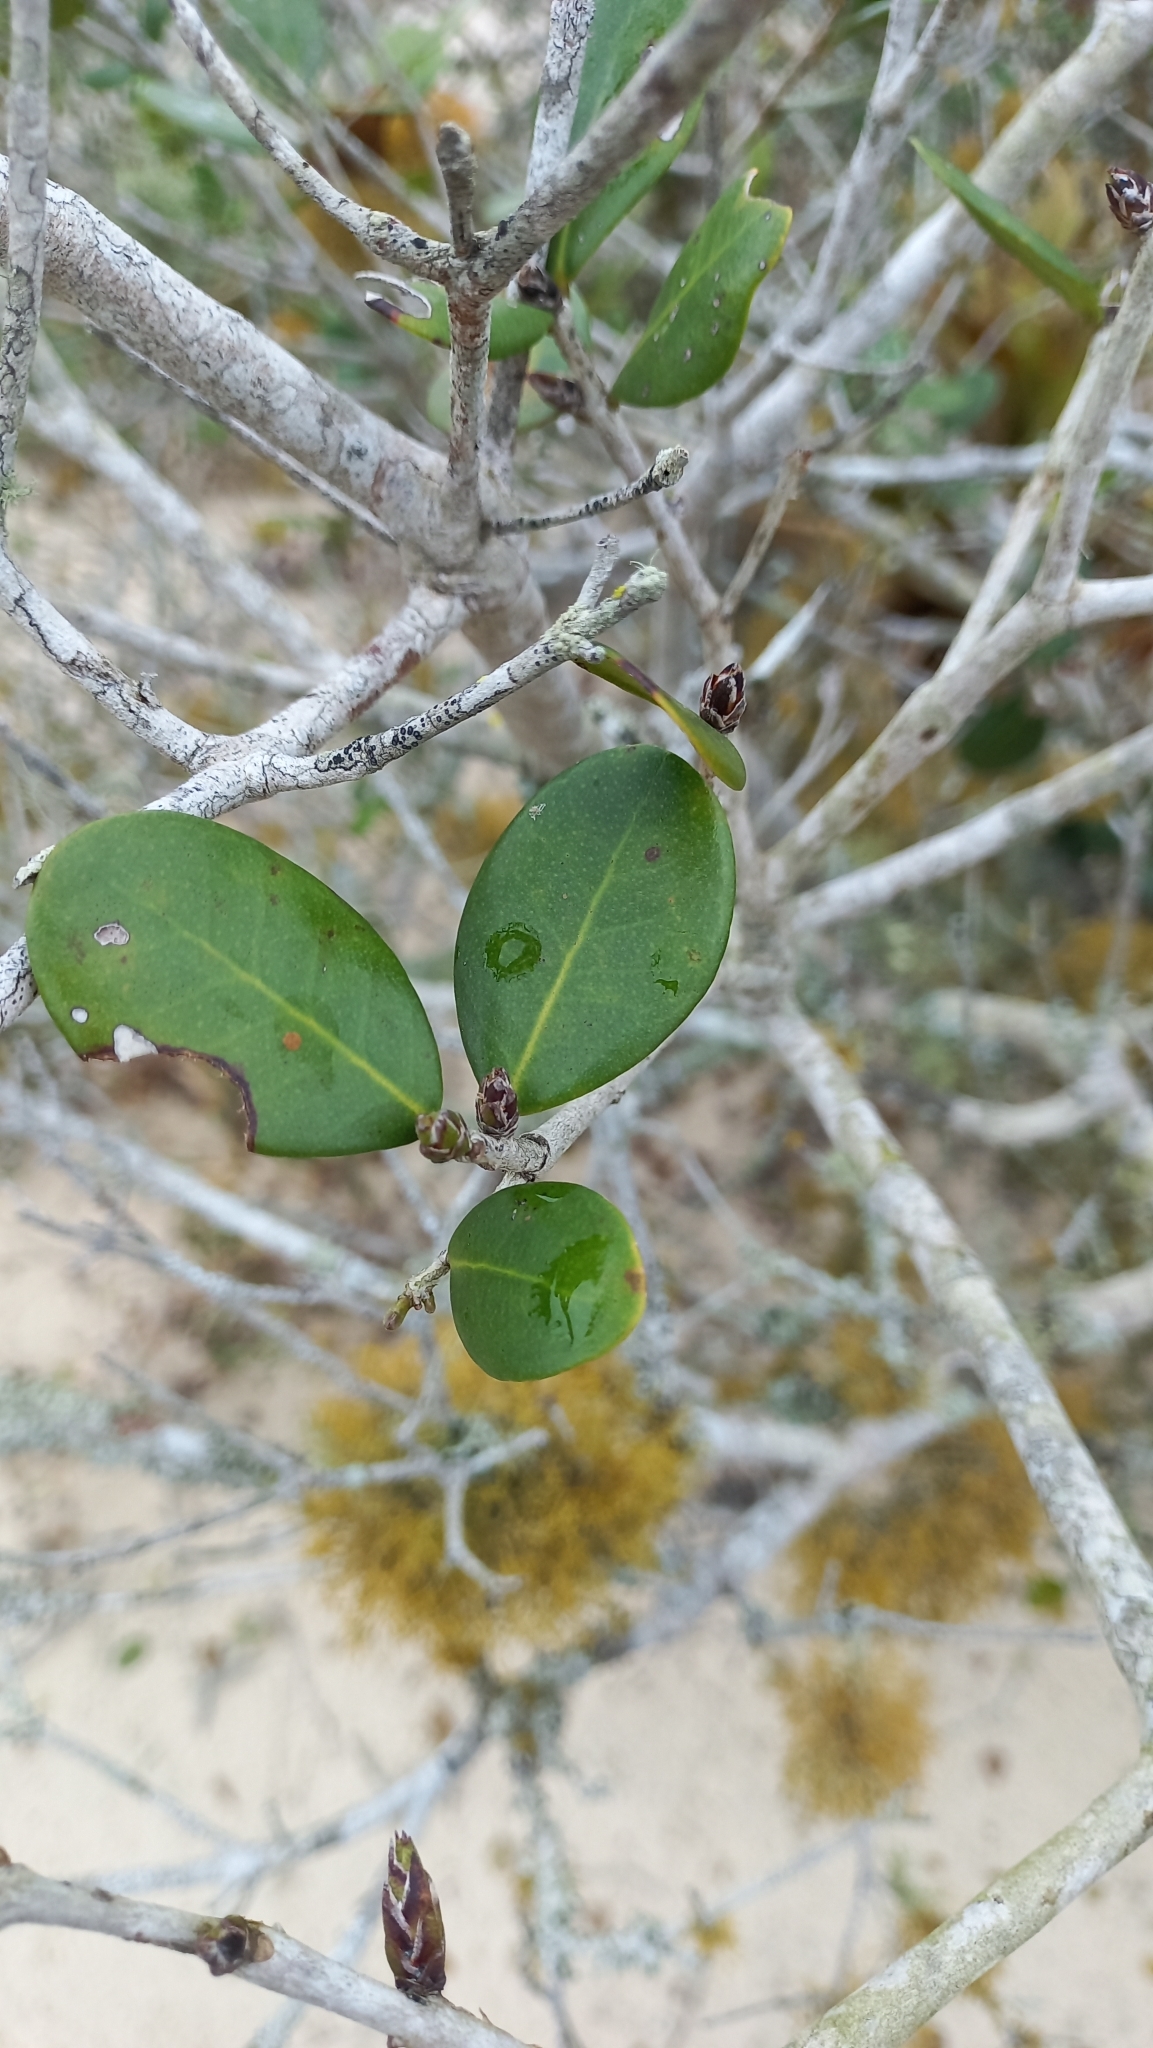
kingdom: Plantae
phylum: Tracheophyta
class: Magnoliopsida
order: Myrtales
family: Myrtaceae
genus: Eugenia
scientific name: Eugenia catharinae
